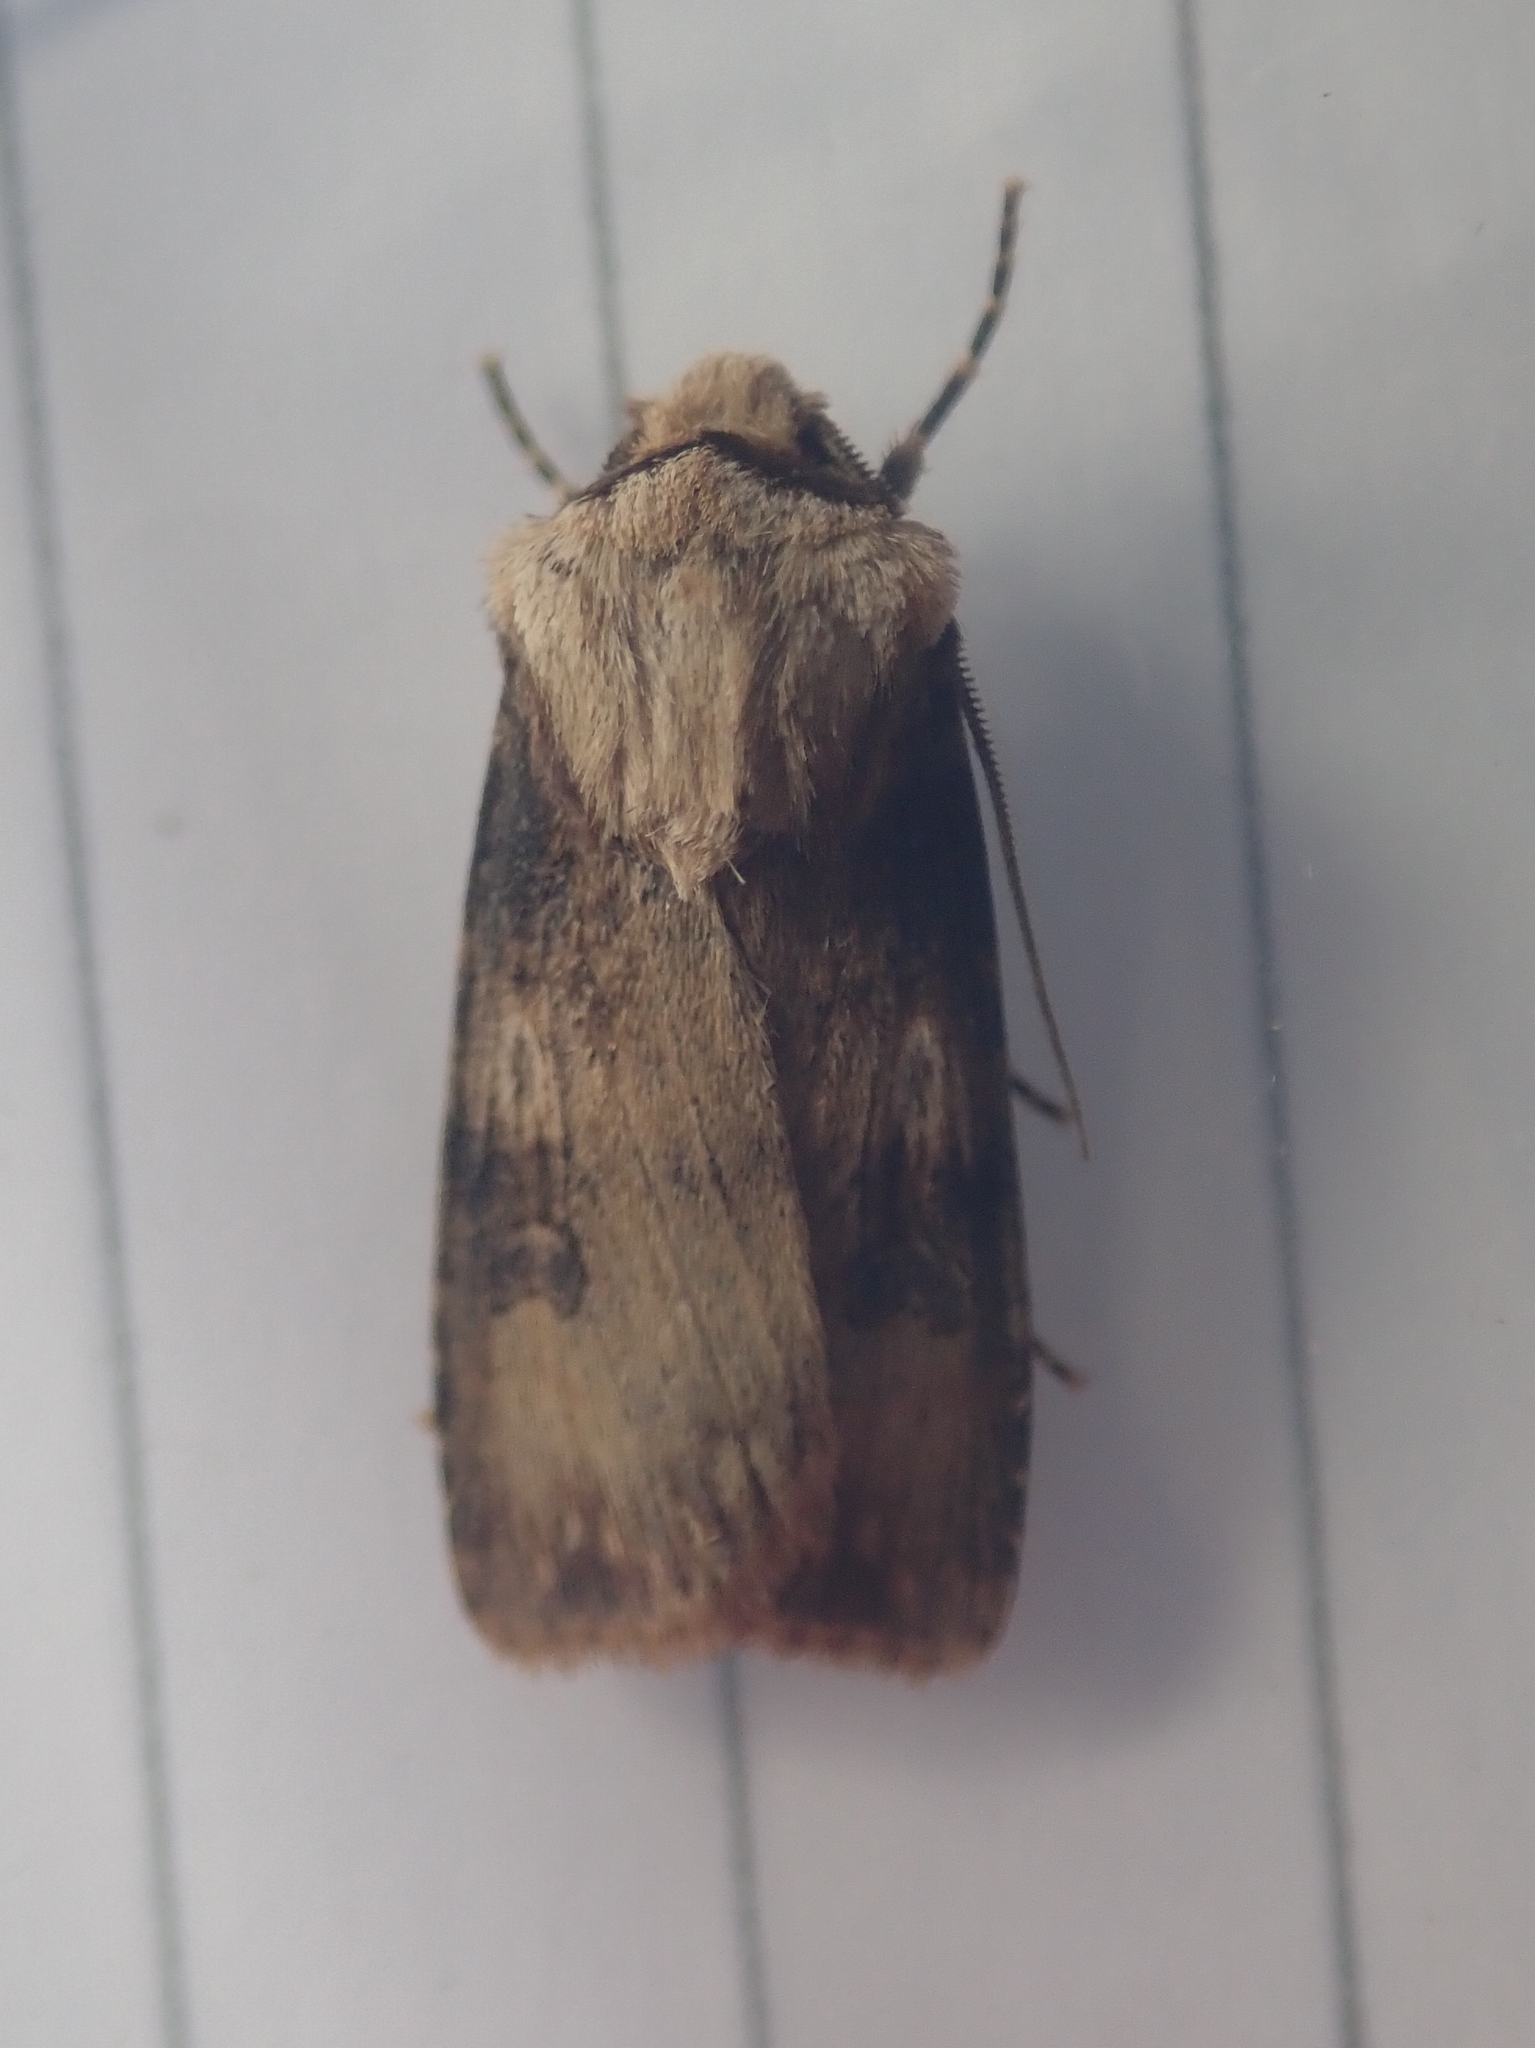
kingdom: Animalia
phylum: Arthropoda
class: Insecta
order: Lepidoptera
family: Noctuidae
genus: Agrotis
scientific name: Agrotis puta
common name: Shuttle-shaped dart
